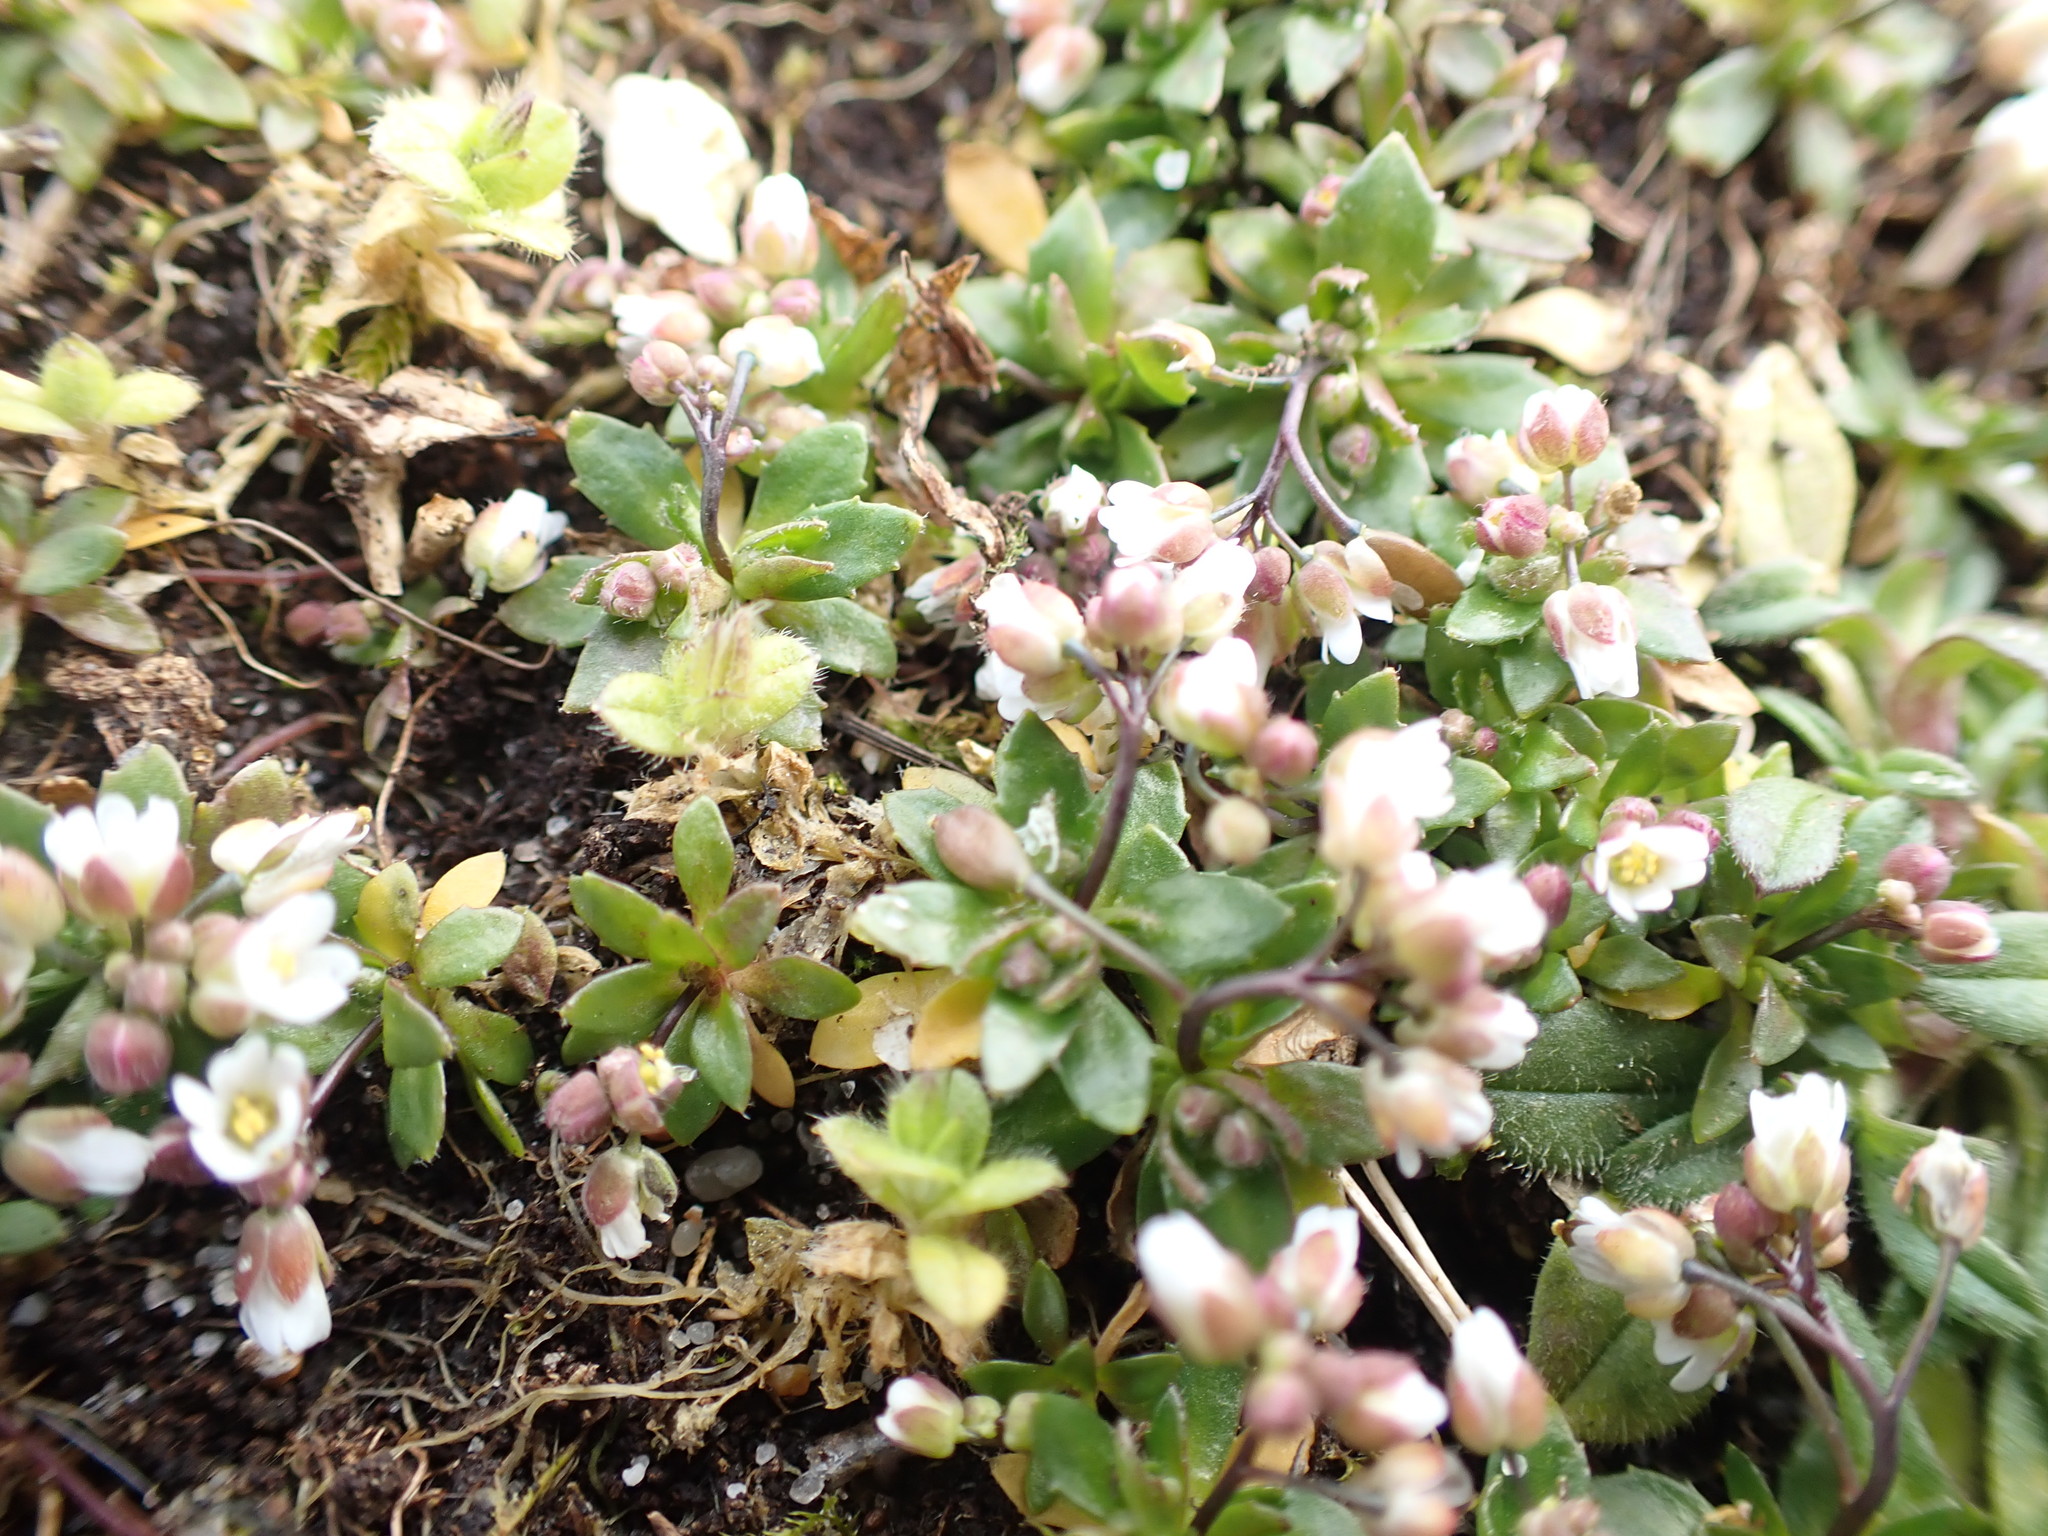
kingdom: Plantae
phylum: Tracheophyta
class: Magnoliopsida
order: Brassicales
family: Brassicaceae
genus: Draba
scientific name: Draba verna
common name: Spring draba
